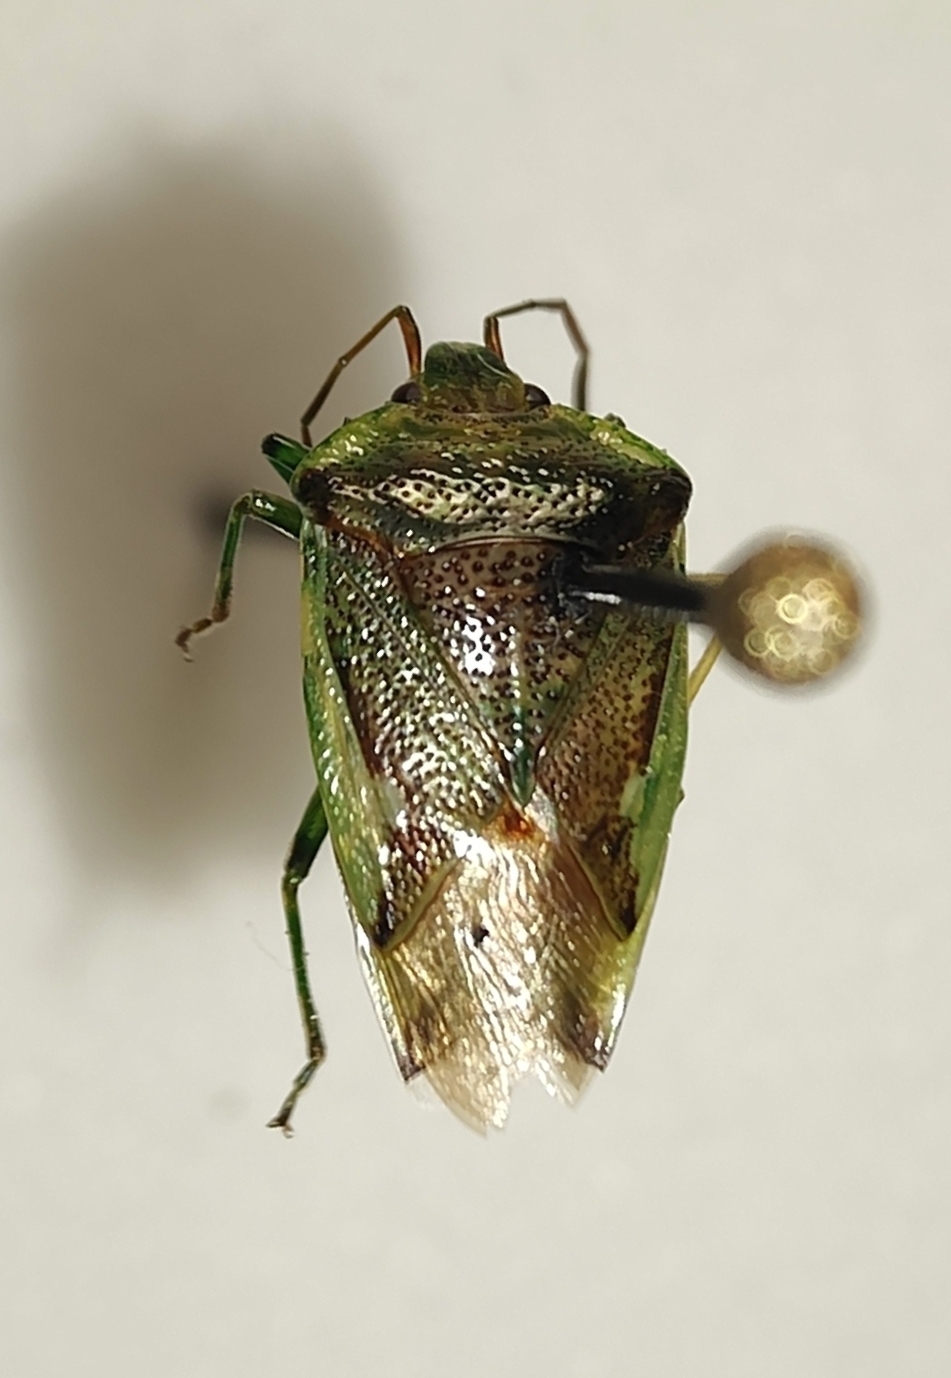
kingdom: Animalia
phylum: Arthropoda
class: Insecta
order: Hemiptera
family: Acanthosomatidae
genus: Oncacontias
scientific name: Oncacontias vittatus
